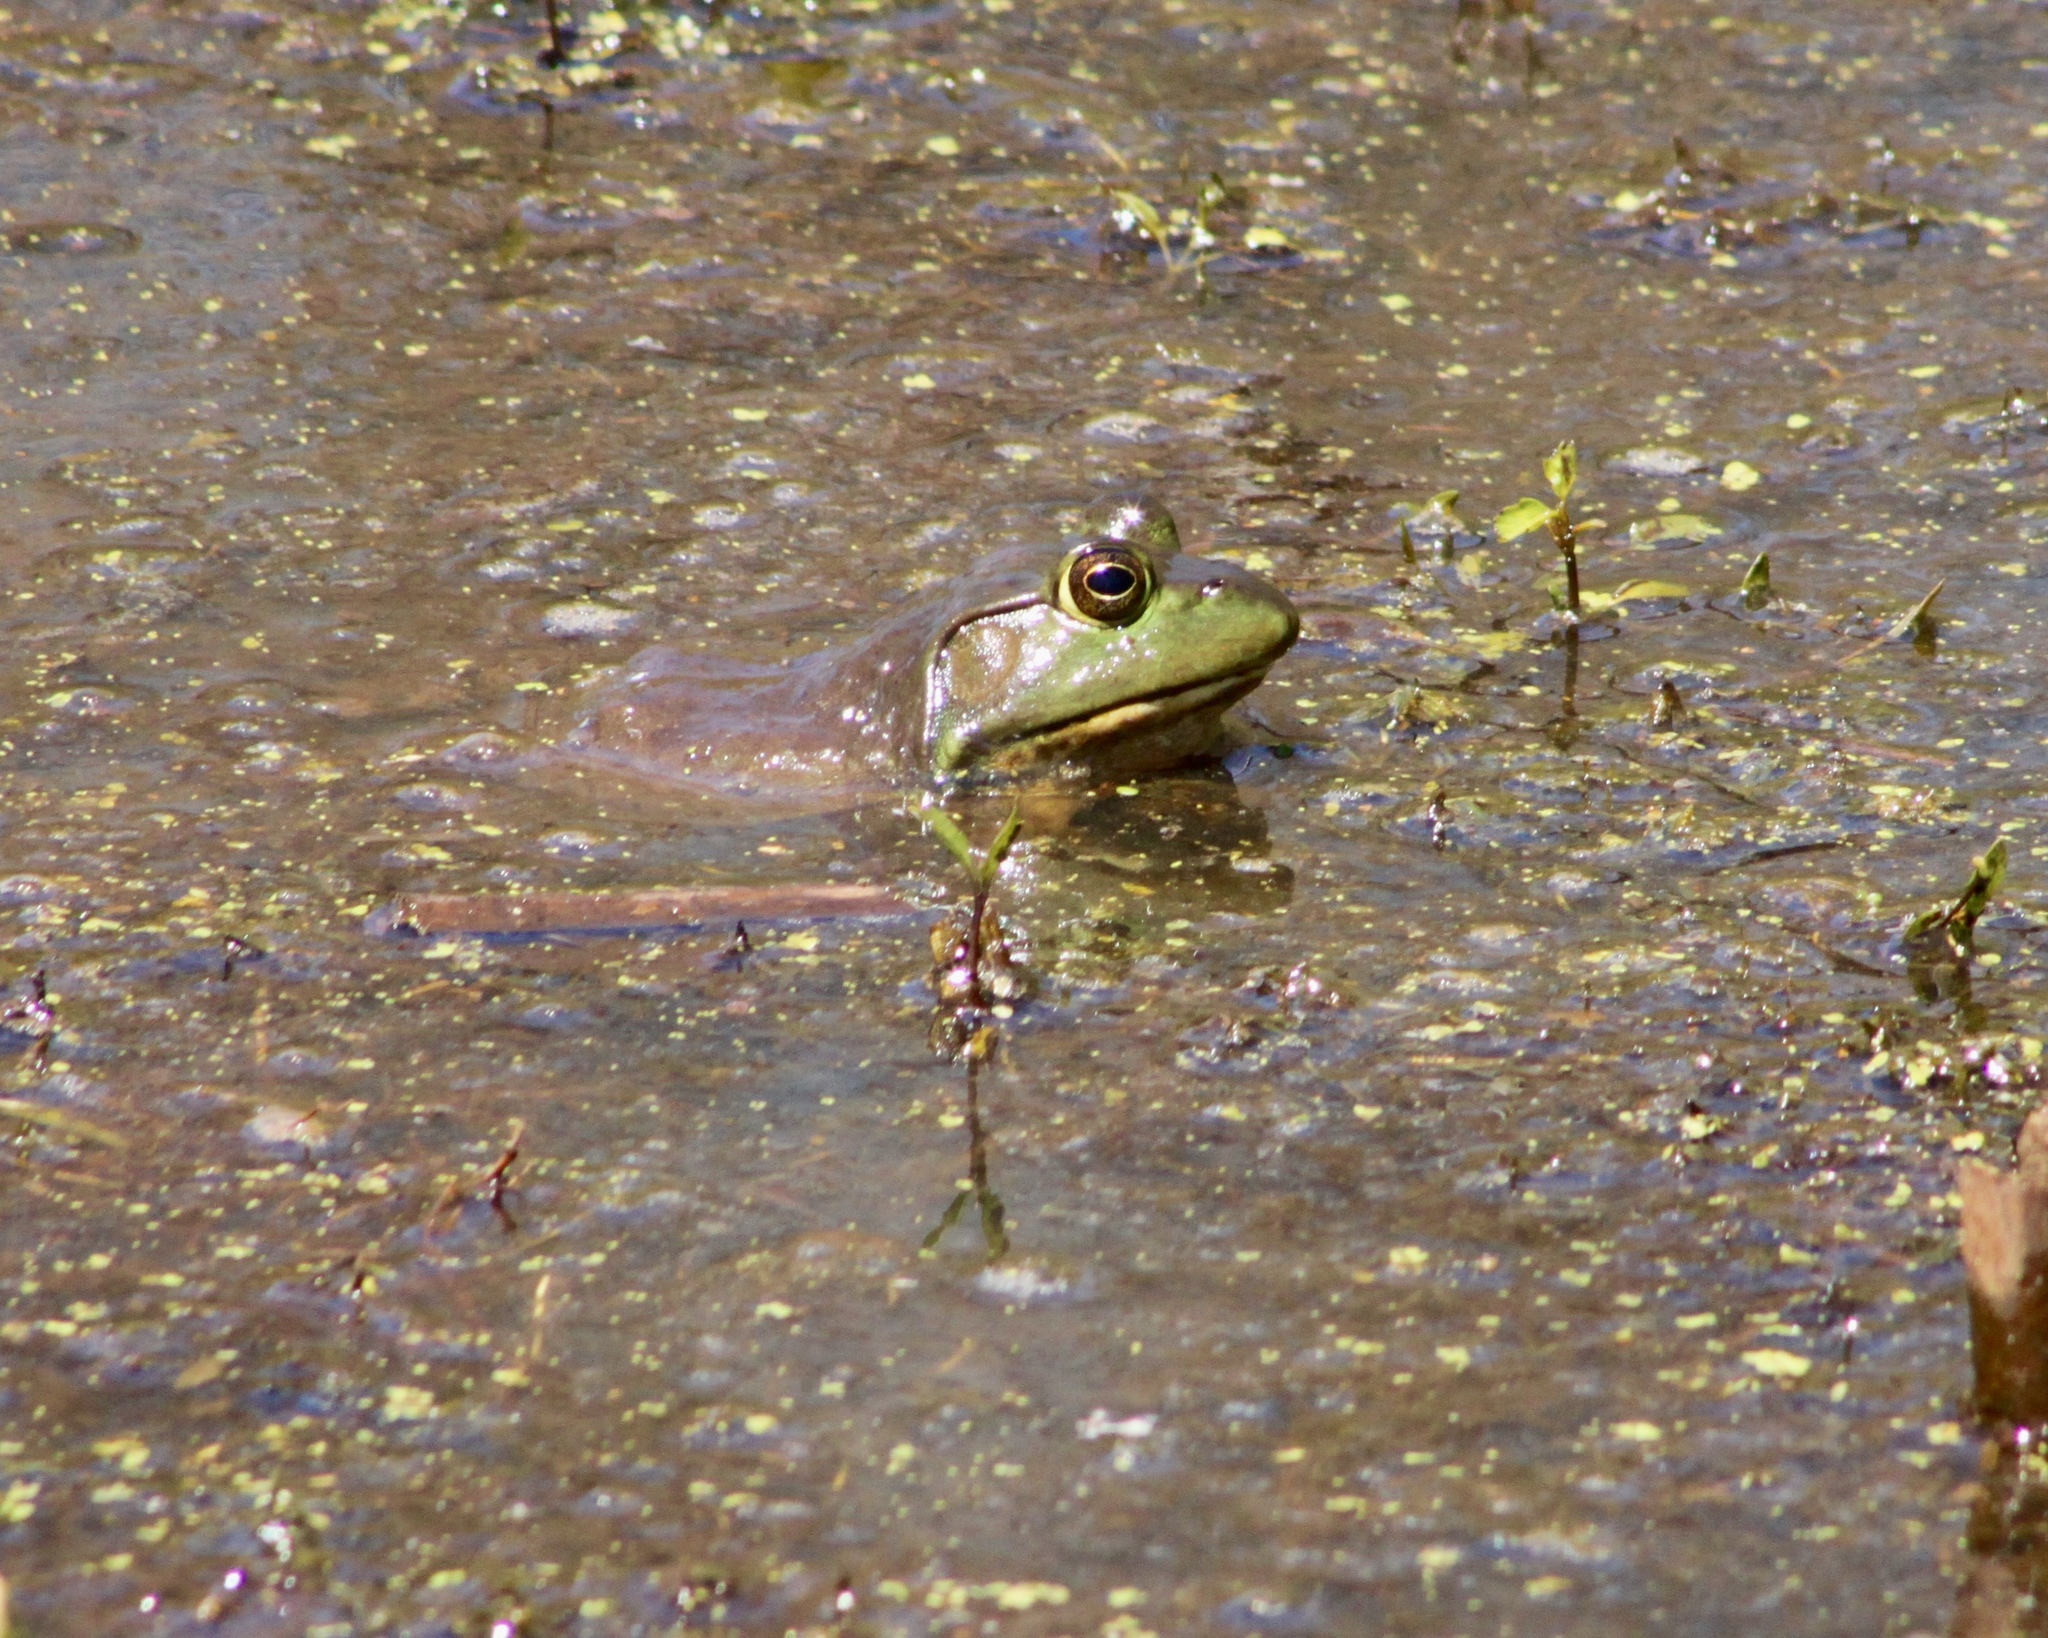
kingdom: Animalia
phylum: Chordata
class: Amphibia
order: Anura
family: Ranidae
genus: Lithobates
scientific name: Lithobates catesbeianus
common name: American bullfrog
